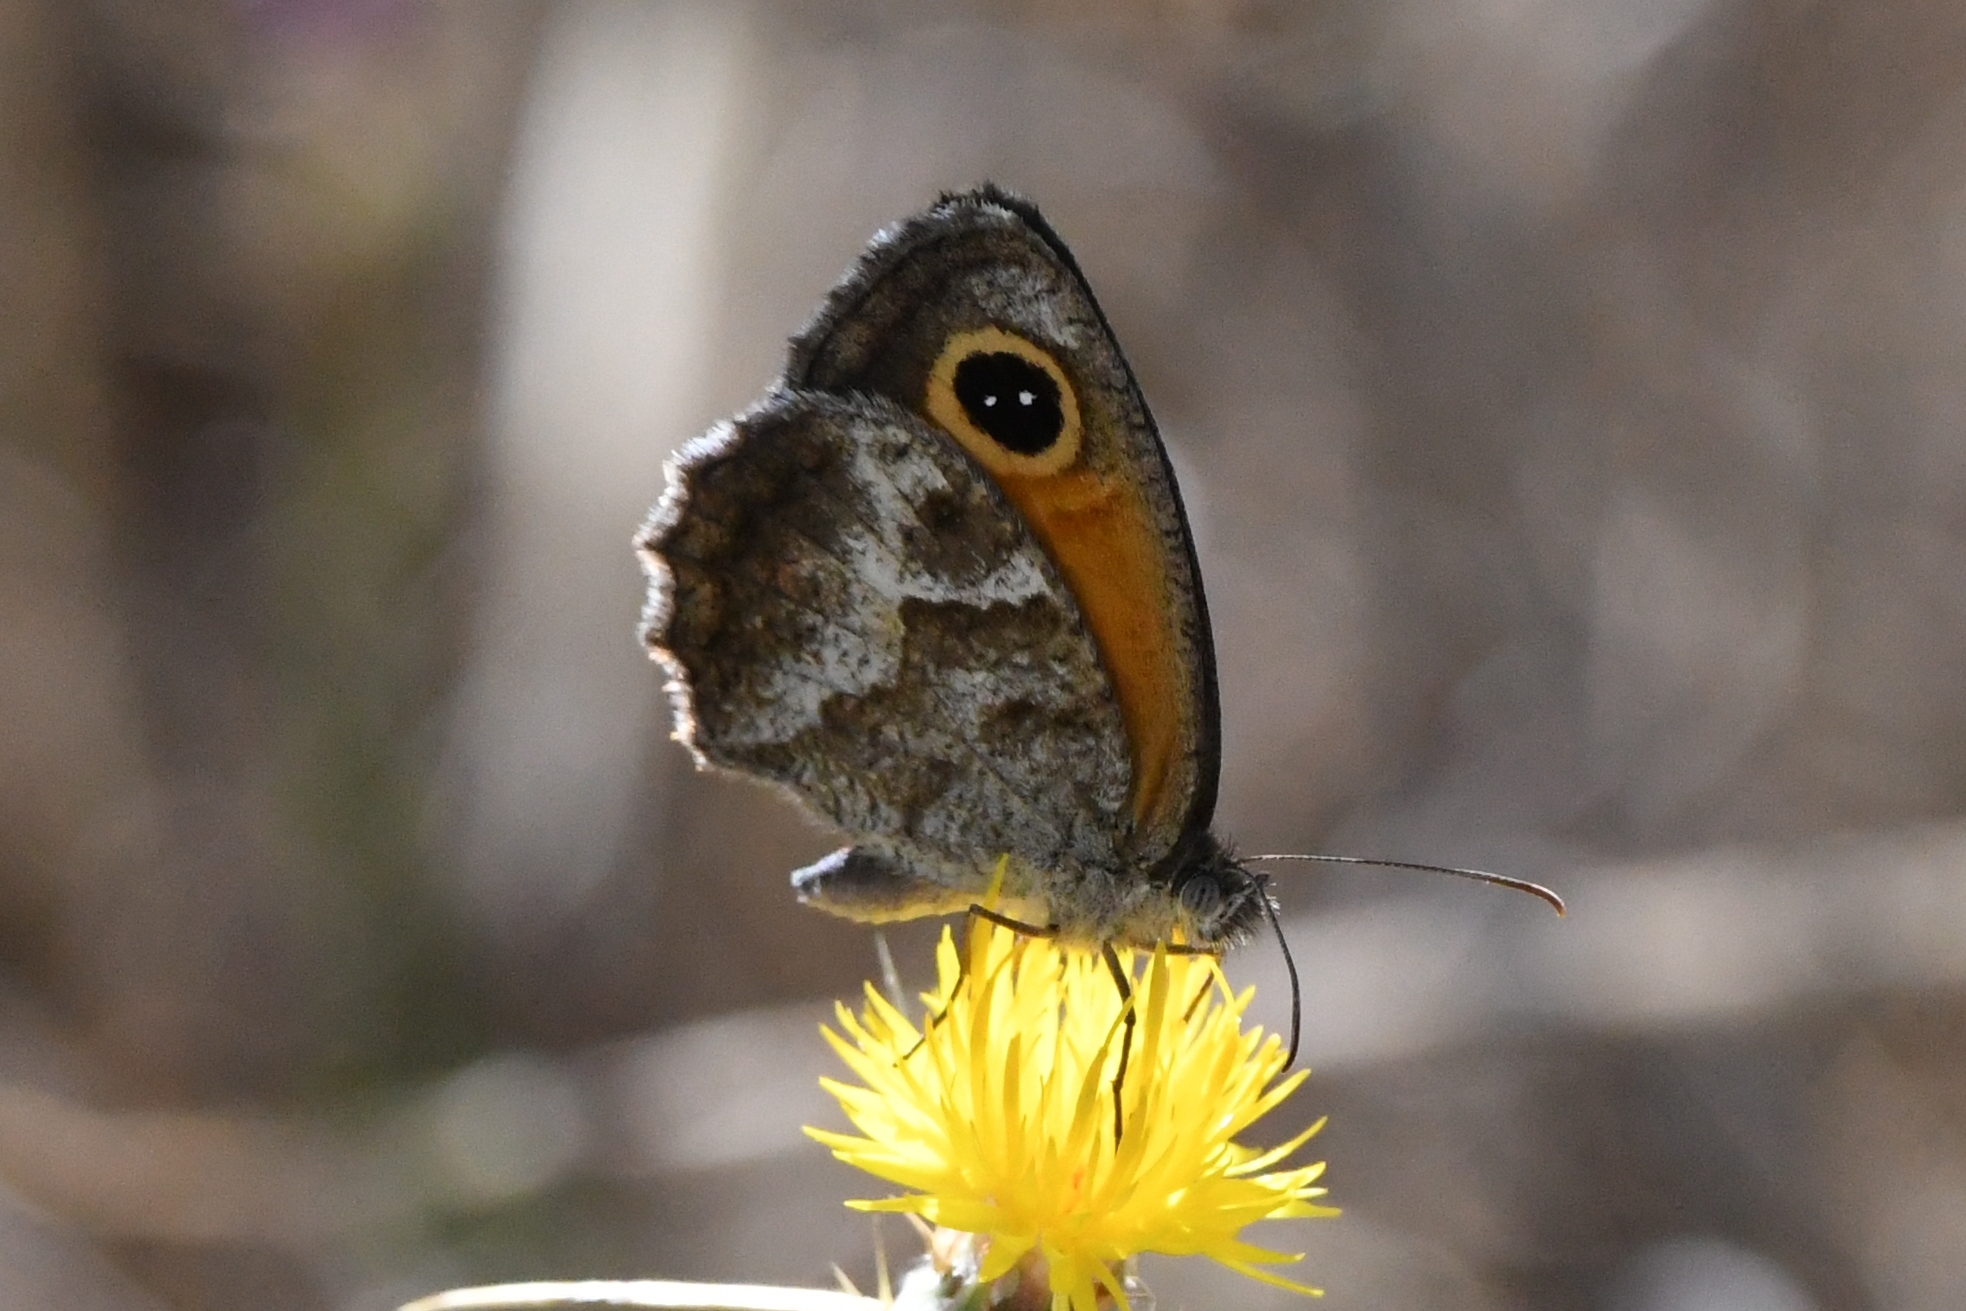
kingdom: Animalia
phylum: Arthropoda
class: Insecta
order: Lepidoptera
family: Nymphalidae
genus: Pyronia
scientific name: Pyronia cecilia
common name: Southern gatekeeper
